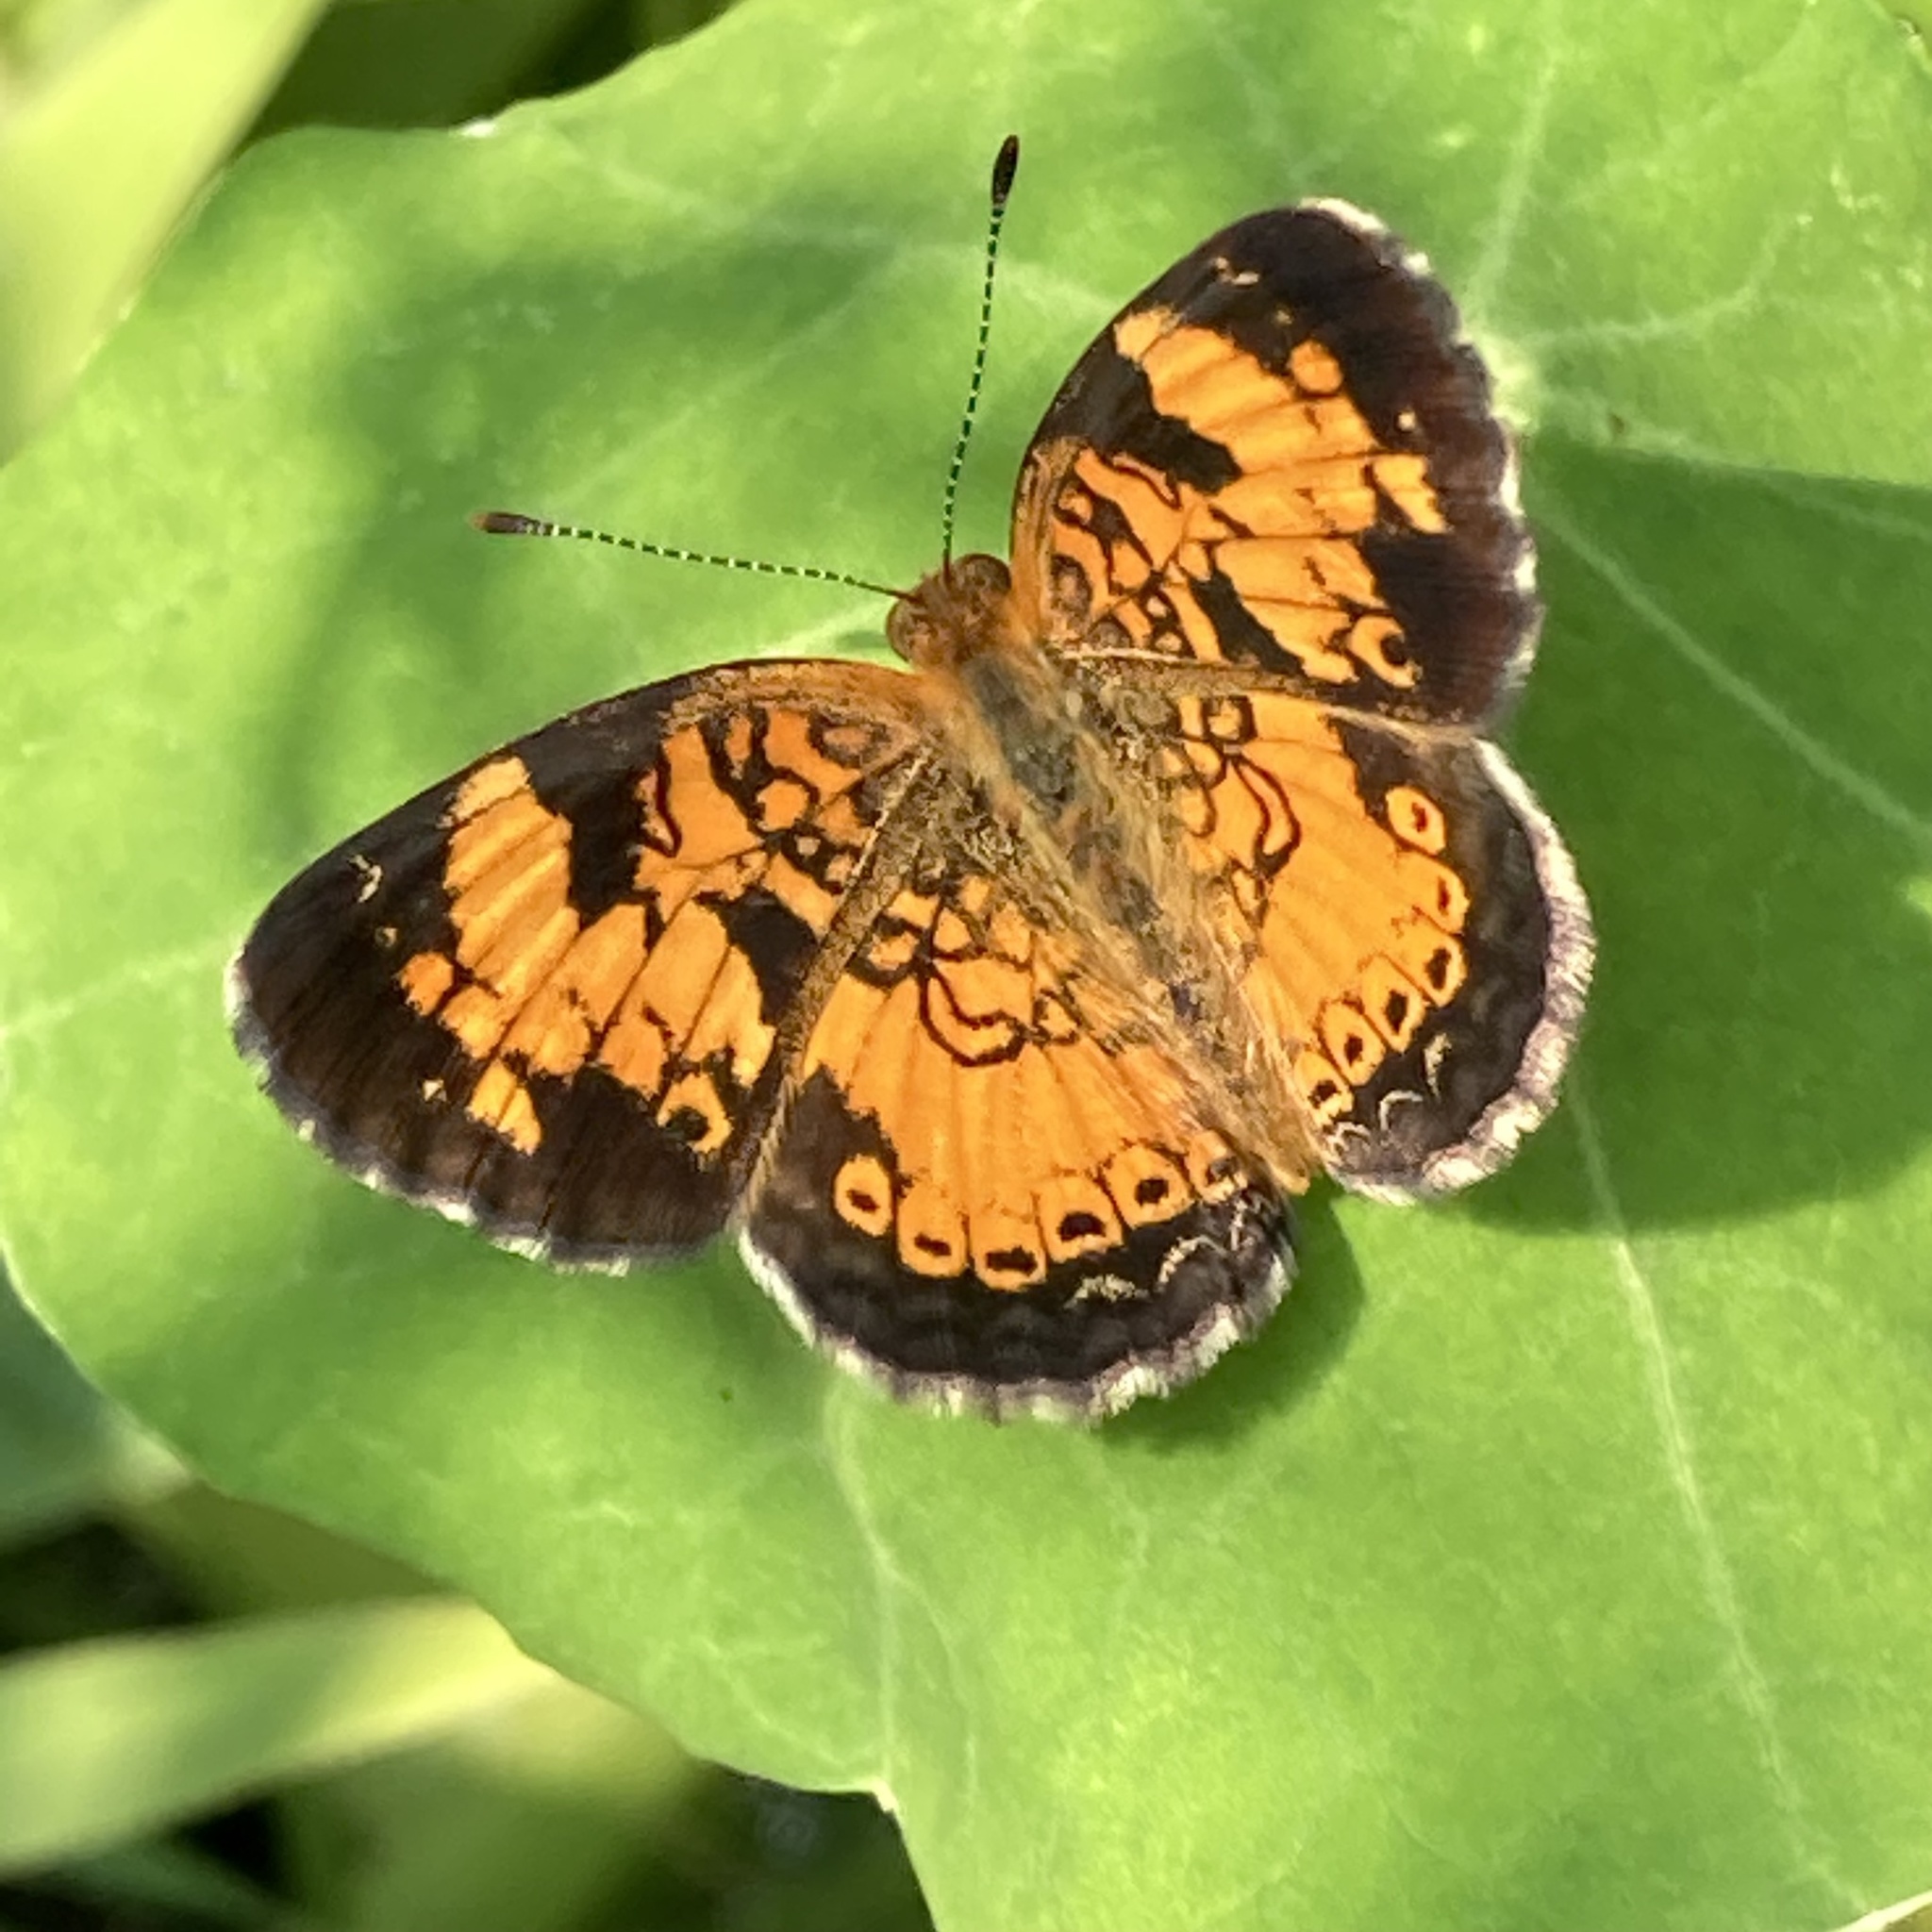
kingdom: Animalia
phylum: Arthropoda
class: Insecta
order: Lepidoptera
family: Nymphalidae
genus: Phyciodes
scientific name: Phyciodes tharos
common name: Pearl crescent
